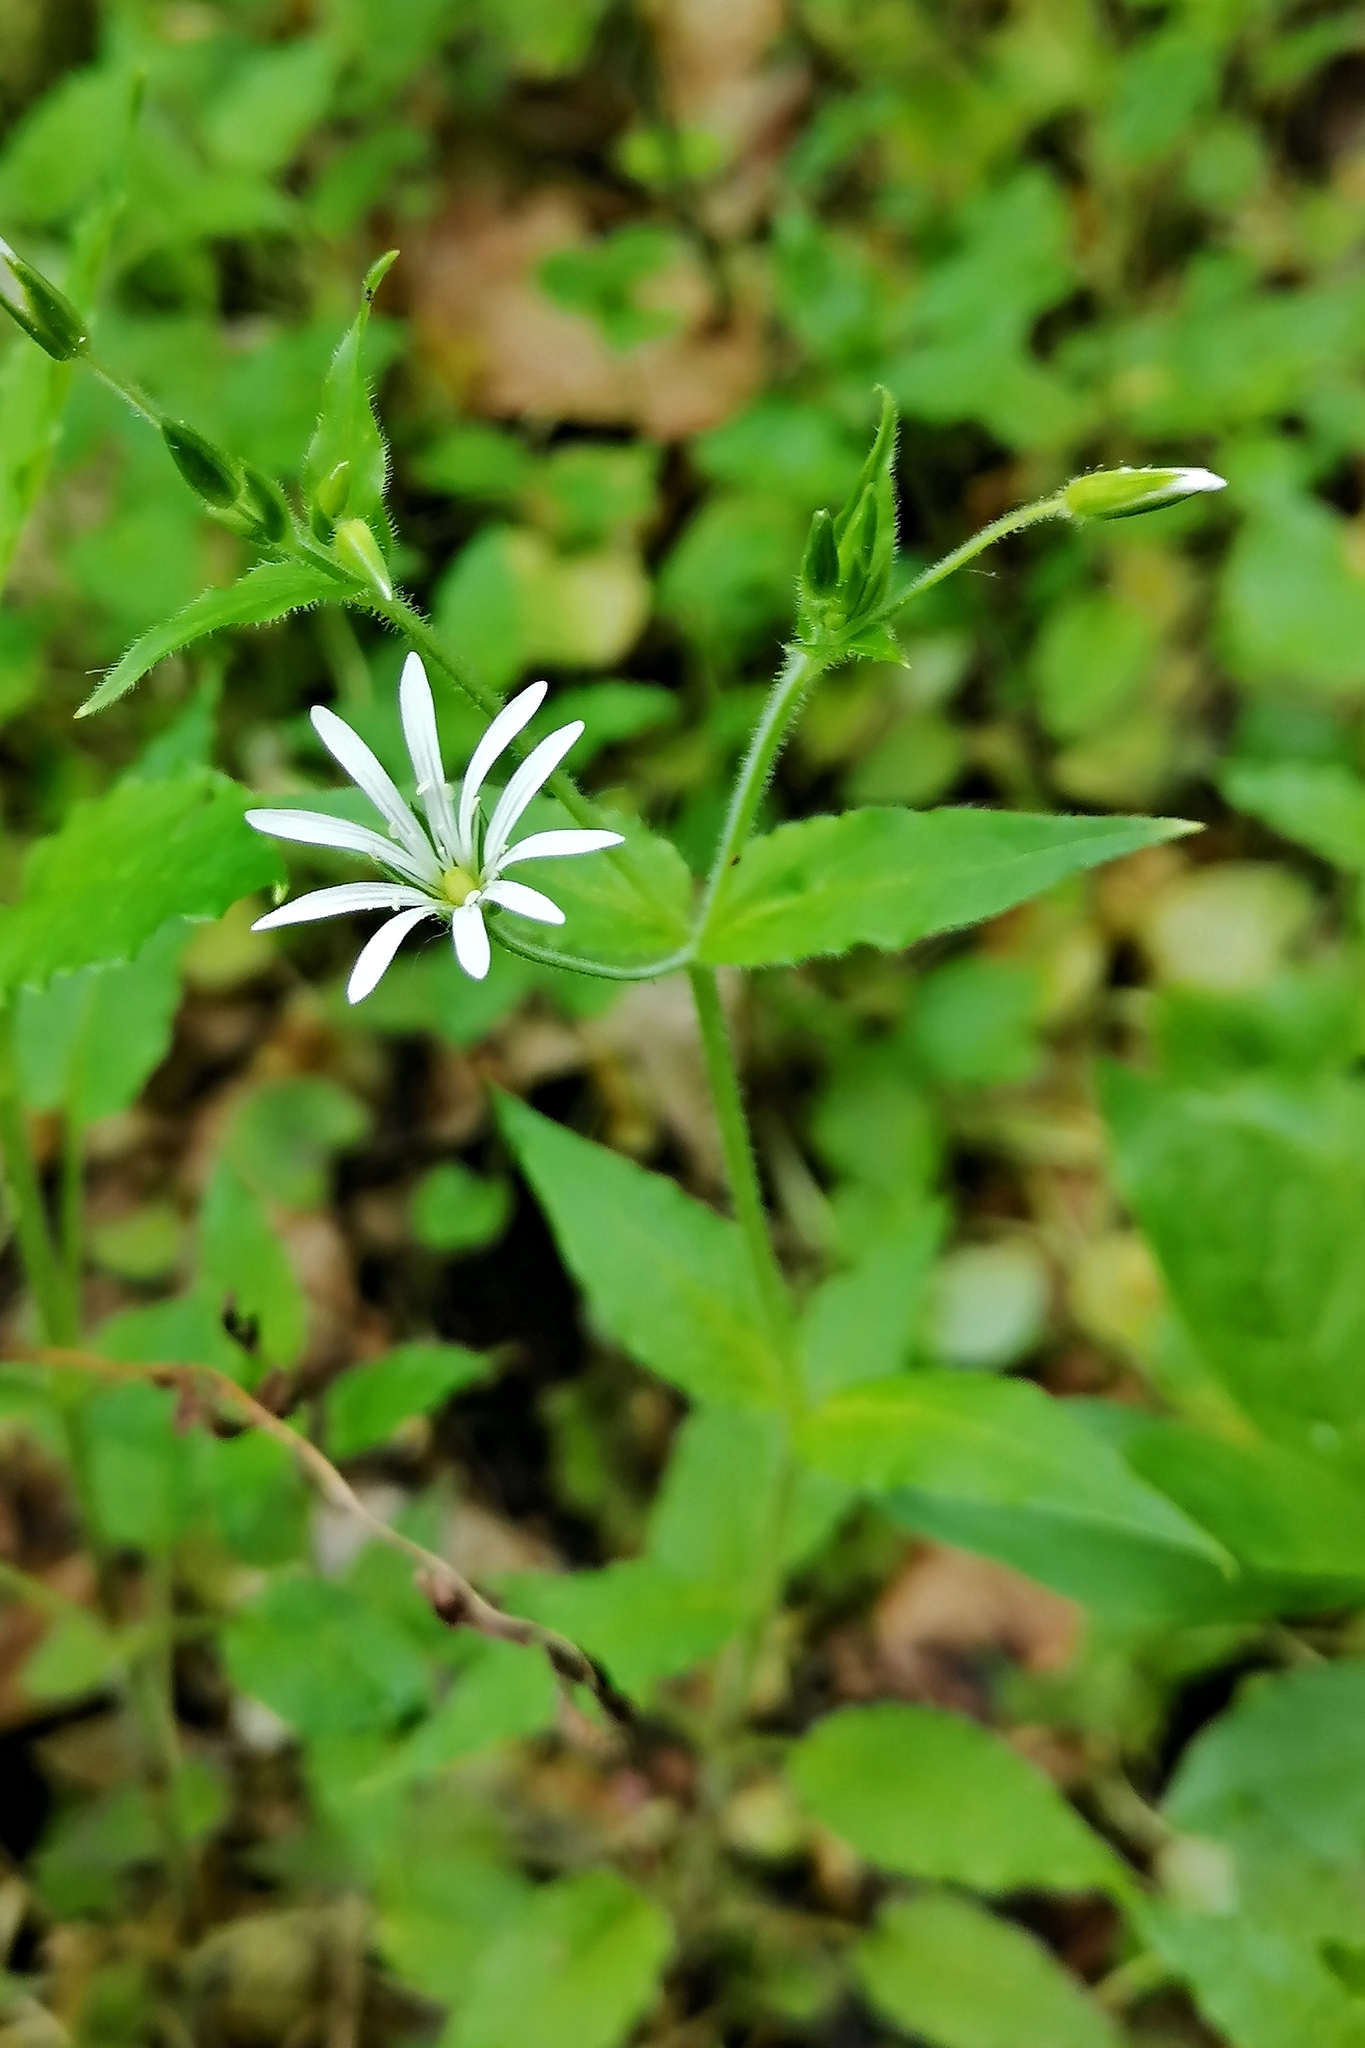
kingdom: Plantae
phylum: Tracheophyta
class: Magnoliopsida
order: Caryophyllales
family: Caryophyllaceae
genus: Stellaria
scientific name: Stellaria nemorum
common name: Wood stitchwort
